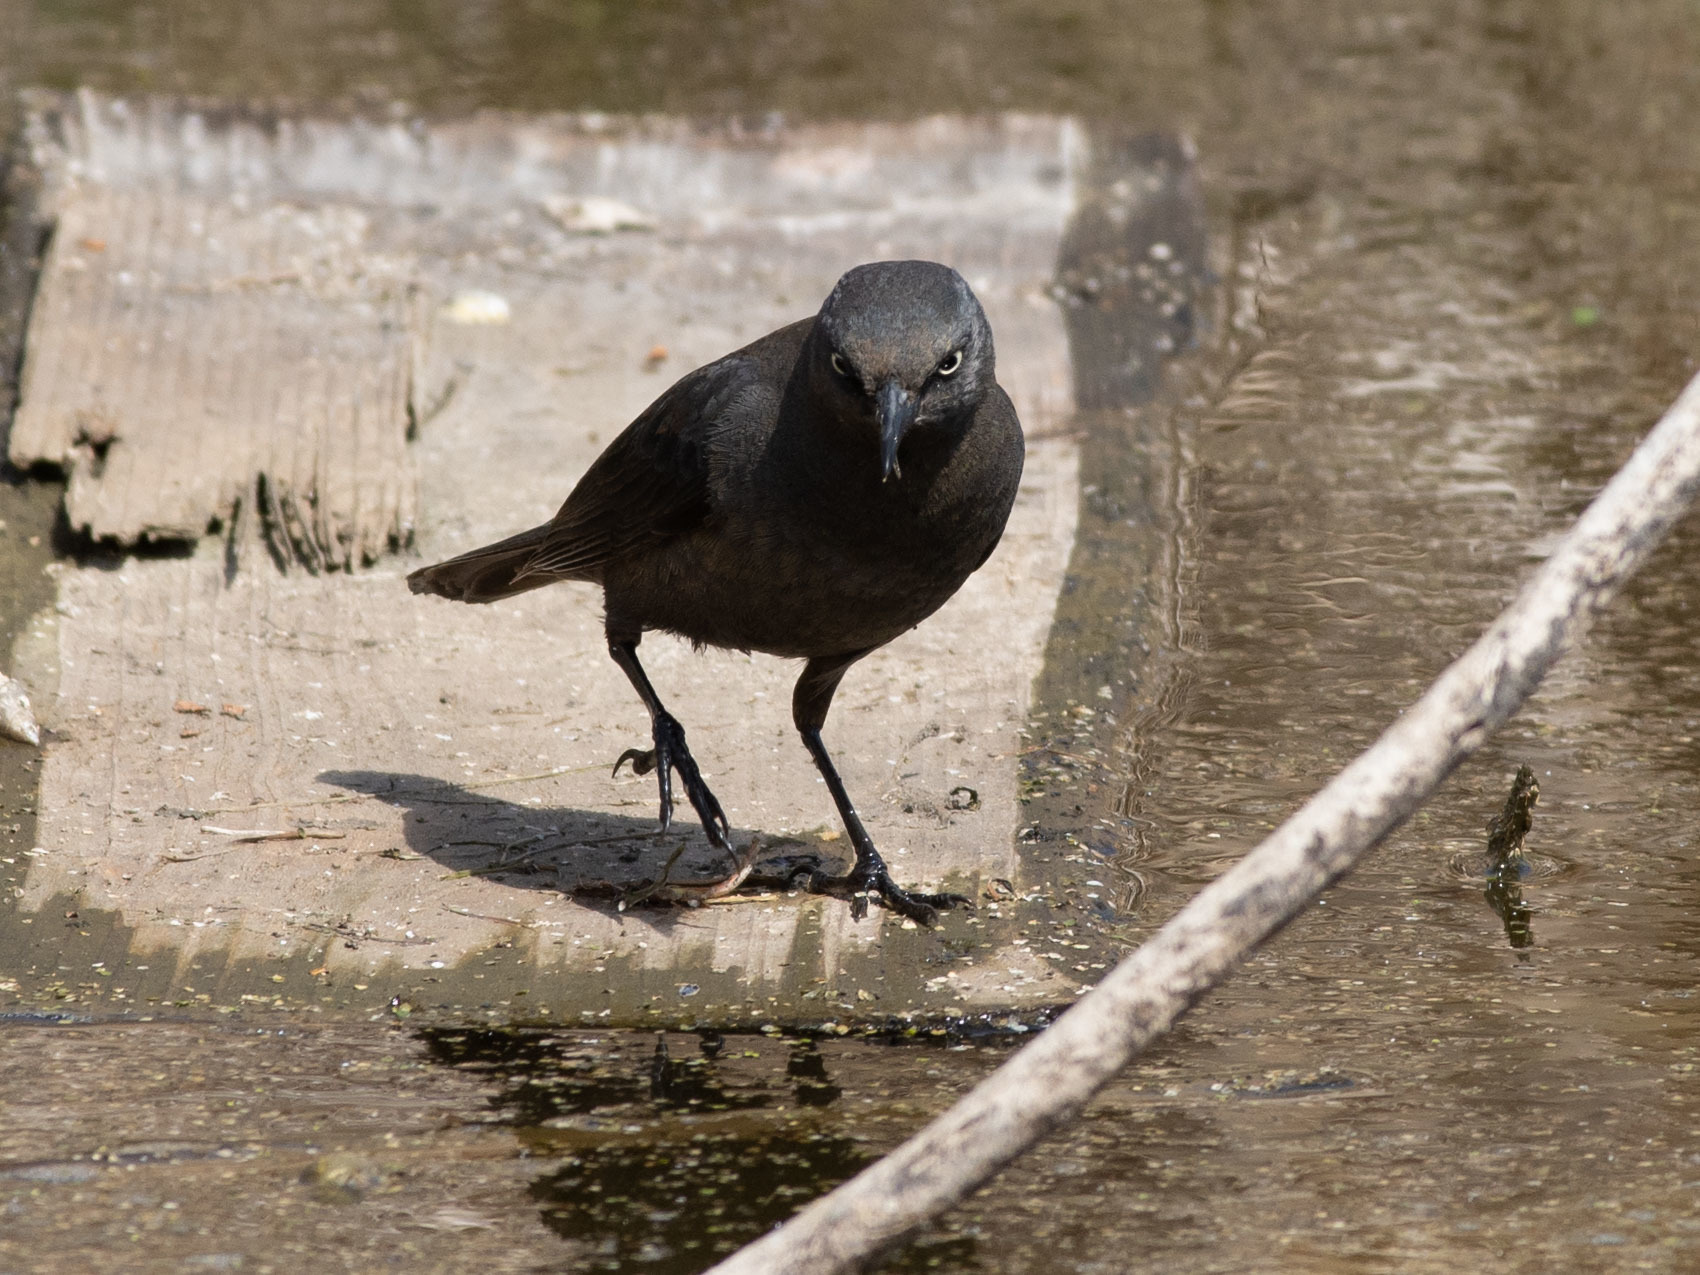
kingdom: Animalia
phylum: Chordata
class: Aves
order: Passeriformes
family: Icteridae
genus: Euphagus
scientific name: Euphagus cyanocephalus
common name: Brewer's blackbird
